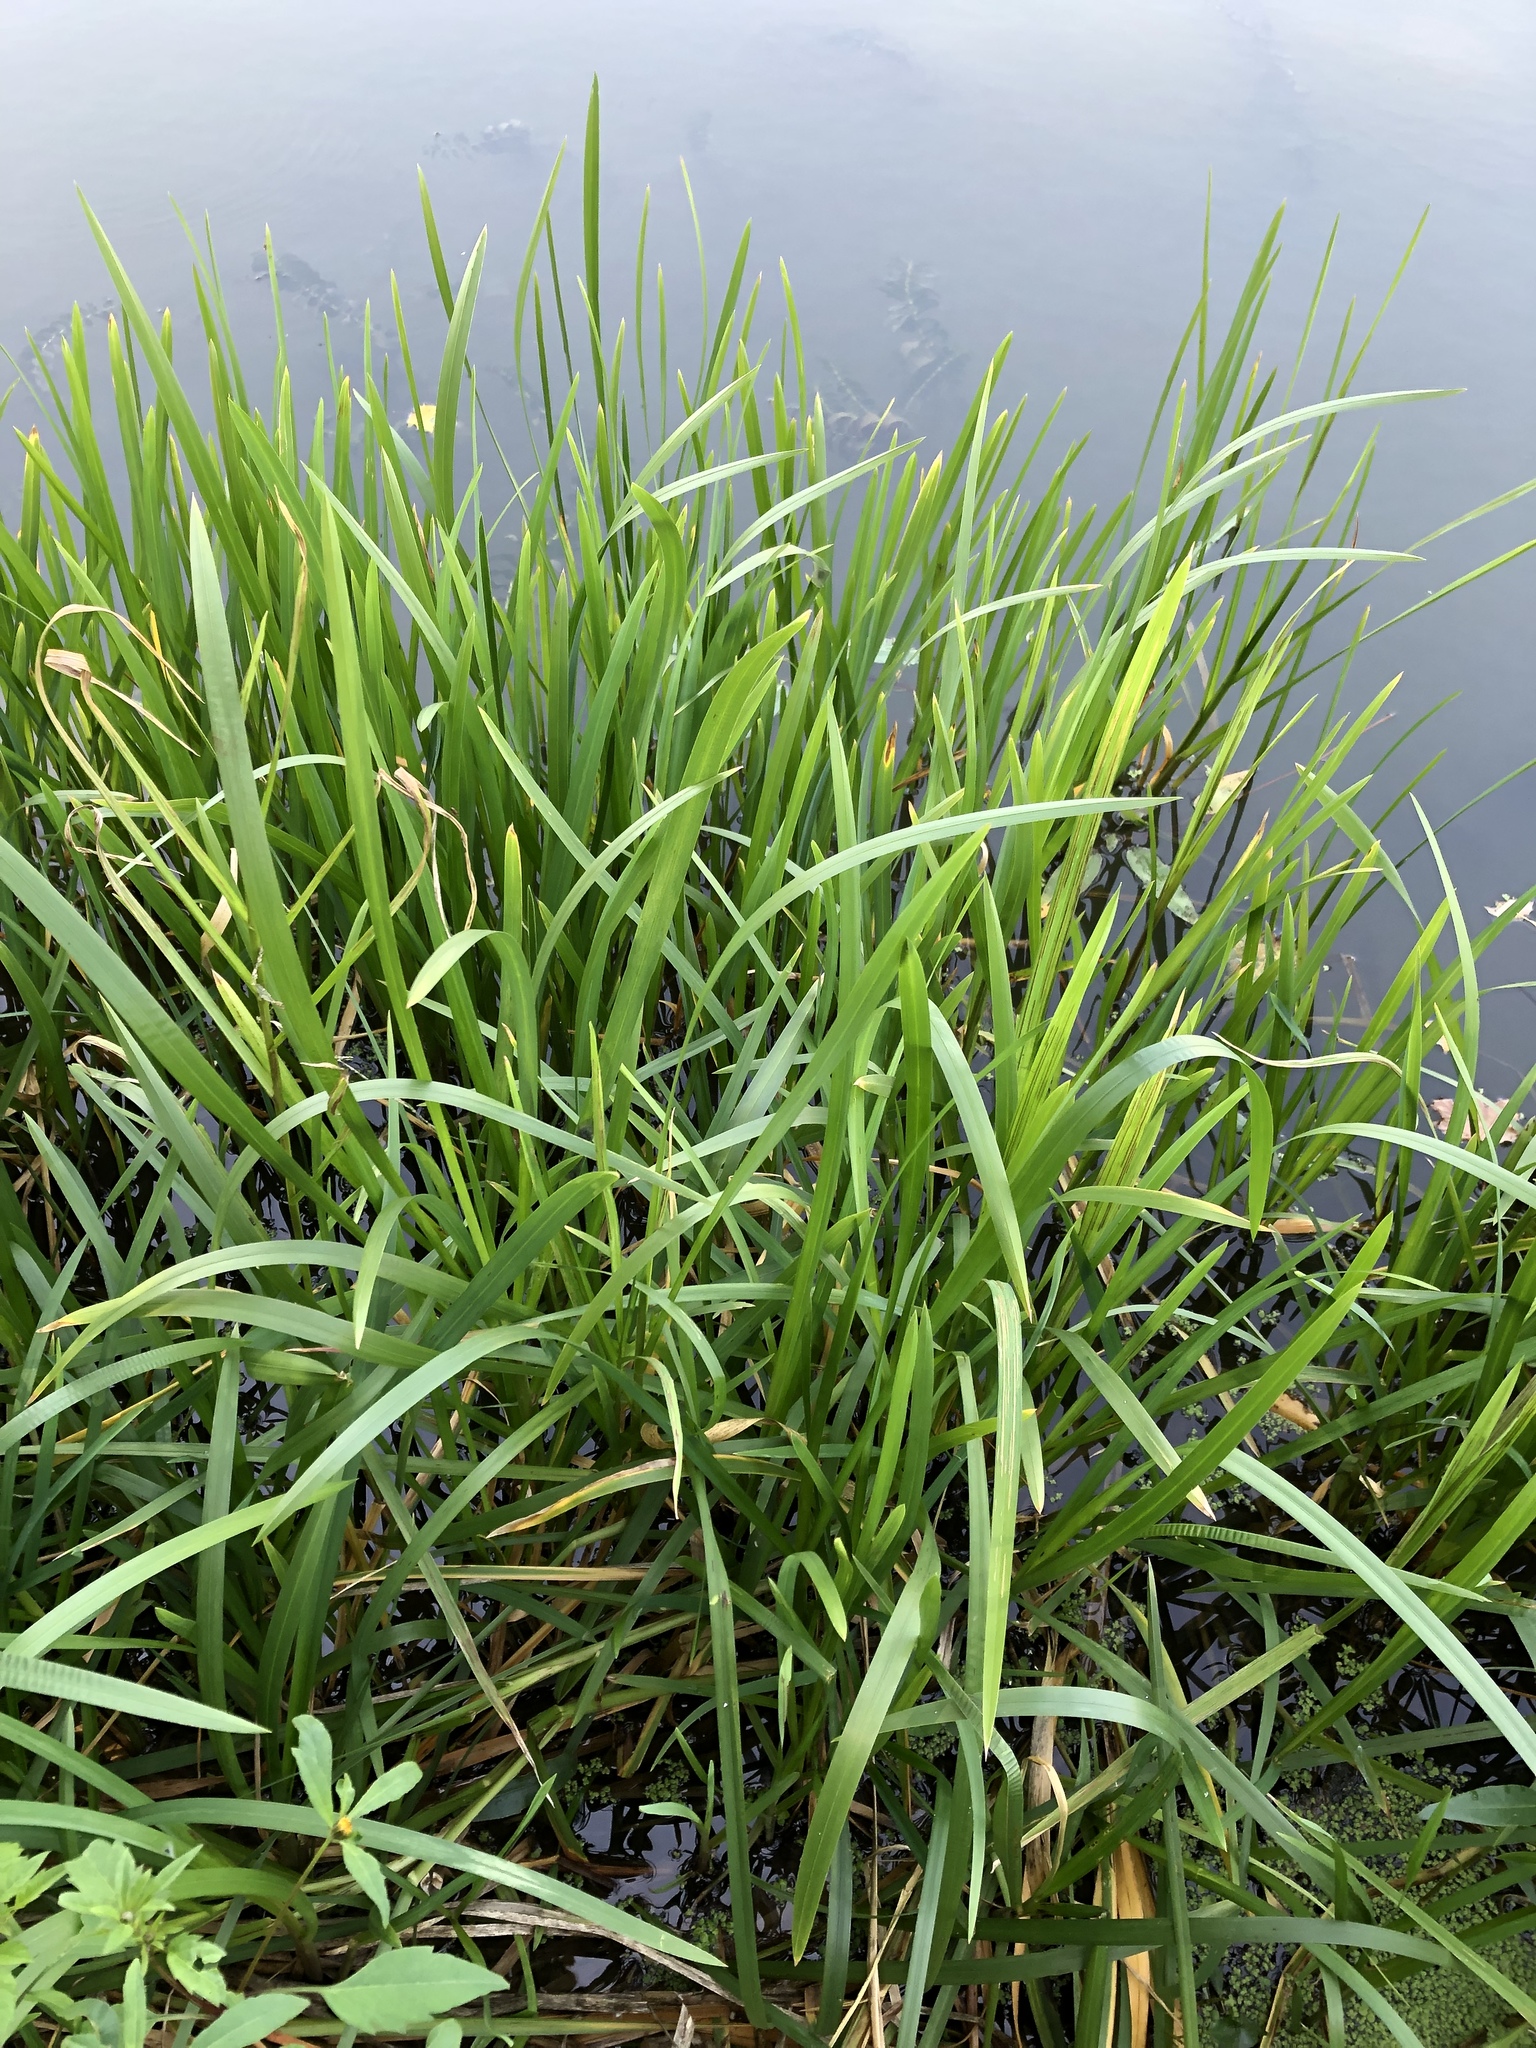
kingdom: Plantae
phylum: Tracheophyta
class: Liliopsida
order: Poales
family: Typhaceae
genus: Sparganium
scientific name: Sparganium erectum
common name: Branched bur-reed
